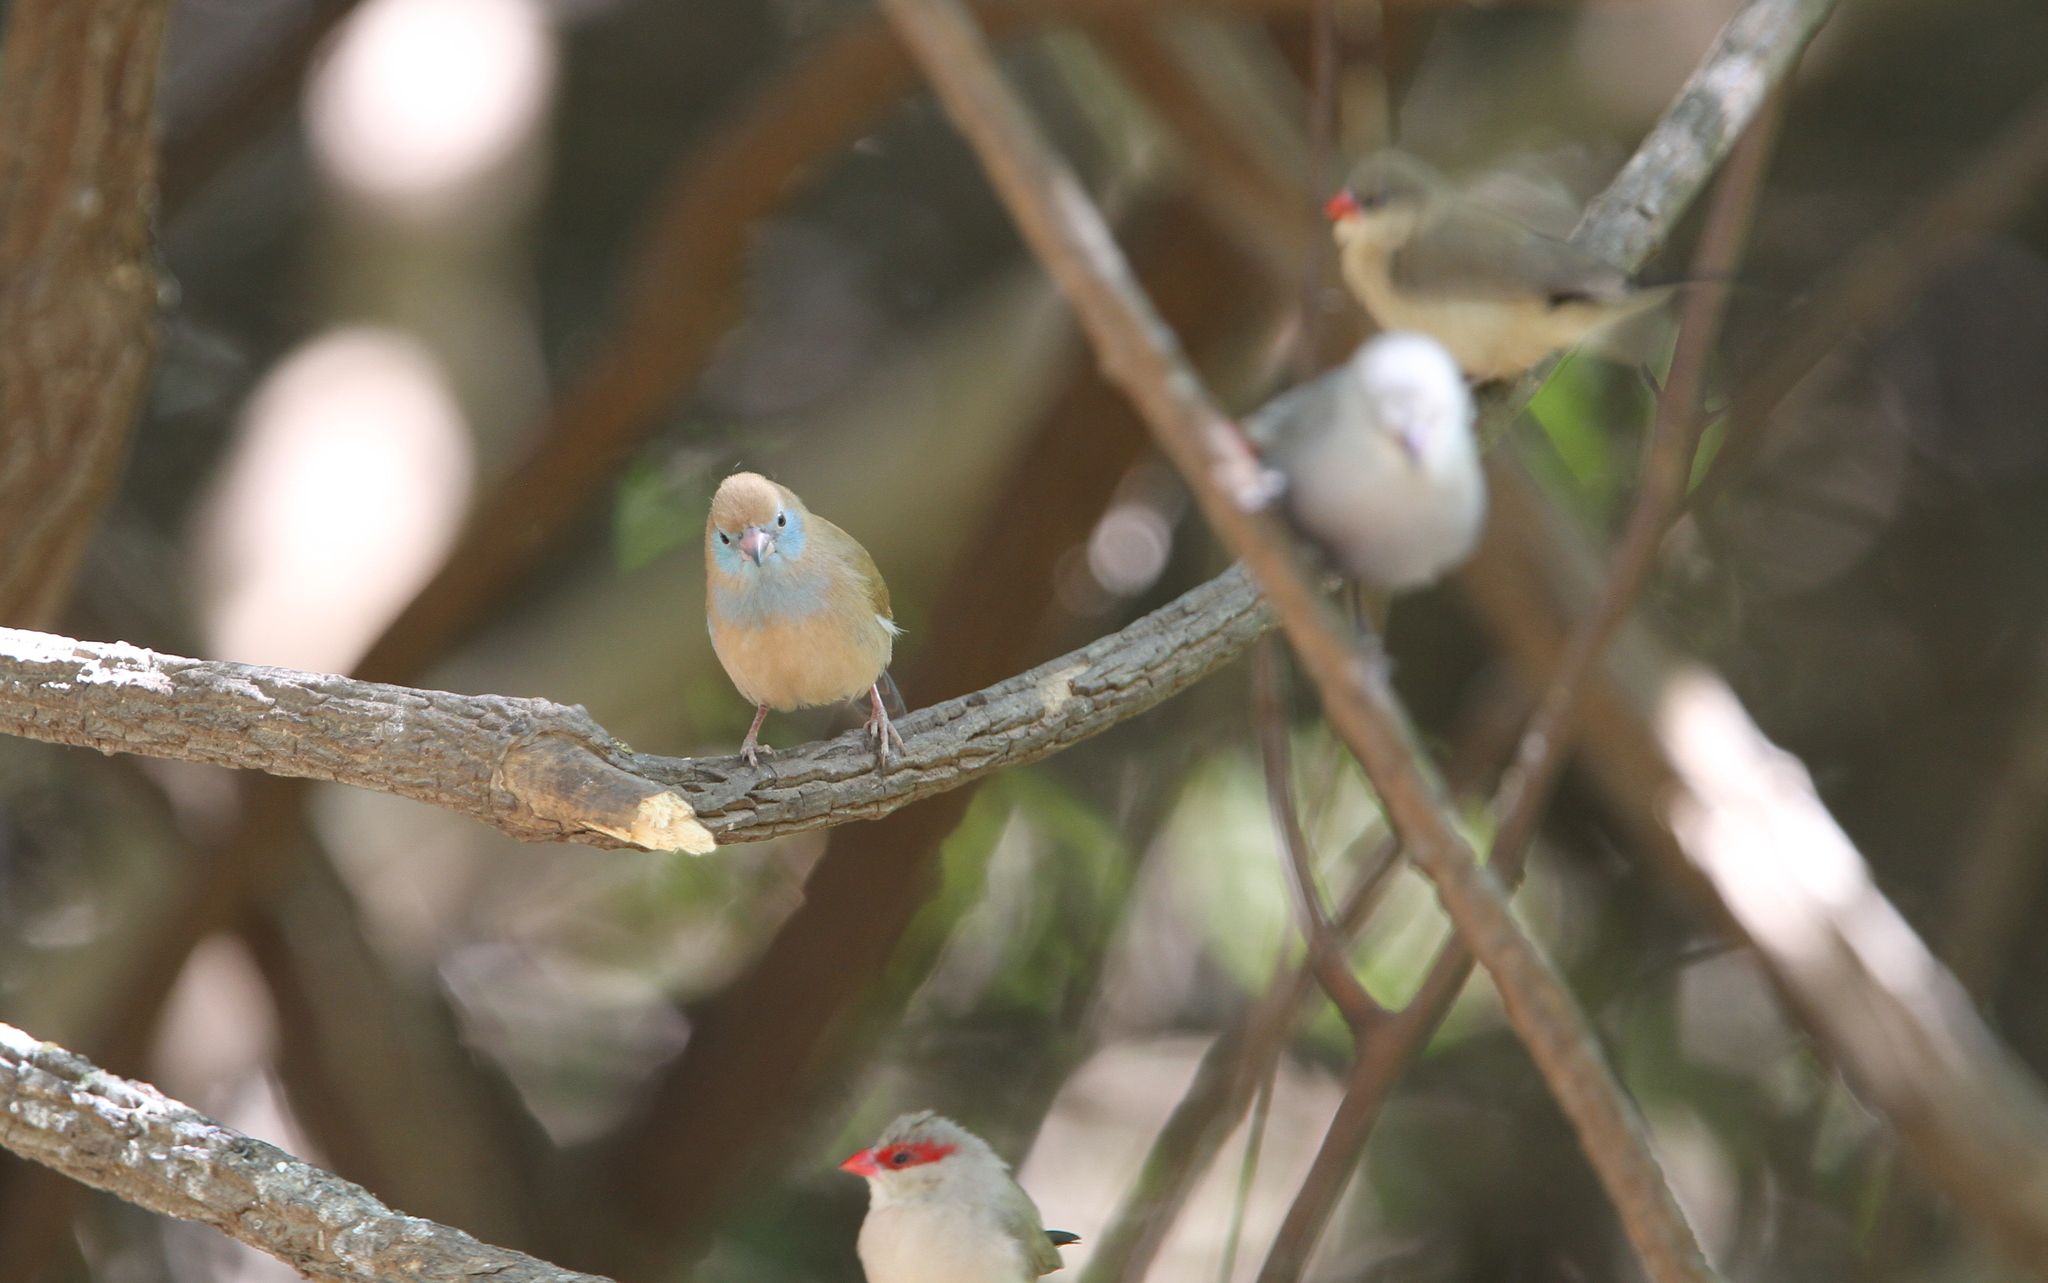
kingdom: Animalia
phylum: Chordata
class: Aves
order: Passeriformes
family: Estrildidae
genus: Uraeginthus
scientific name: Uraeginthus bengalus
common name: Red-cheeked cordon-bleu
